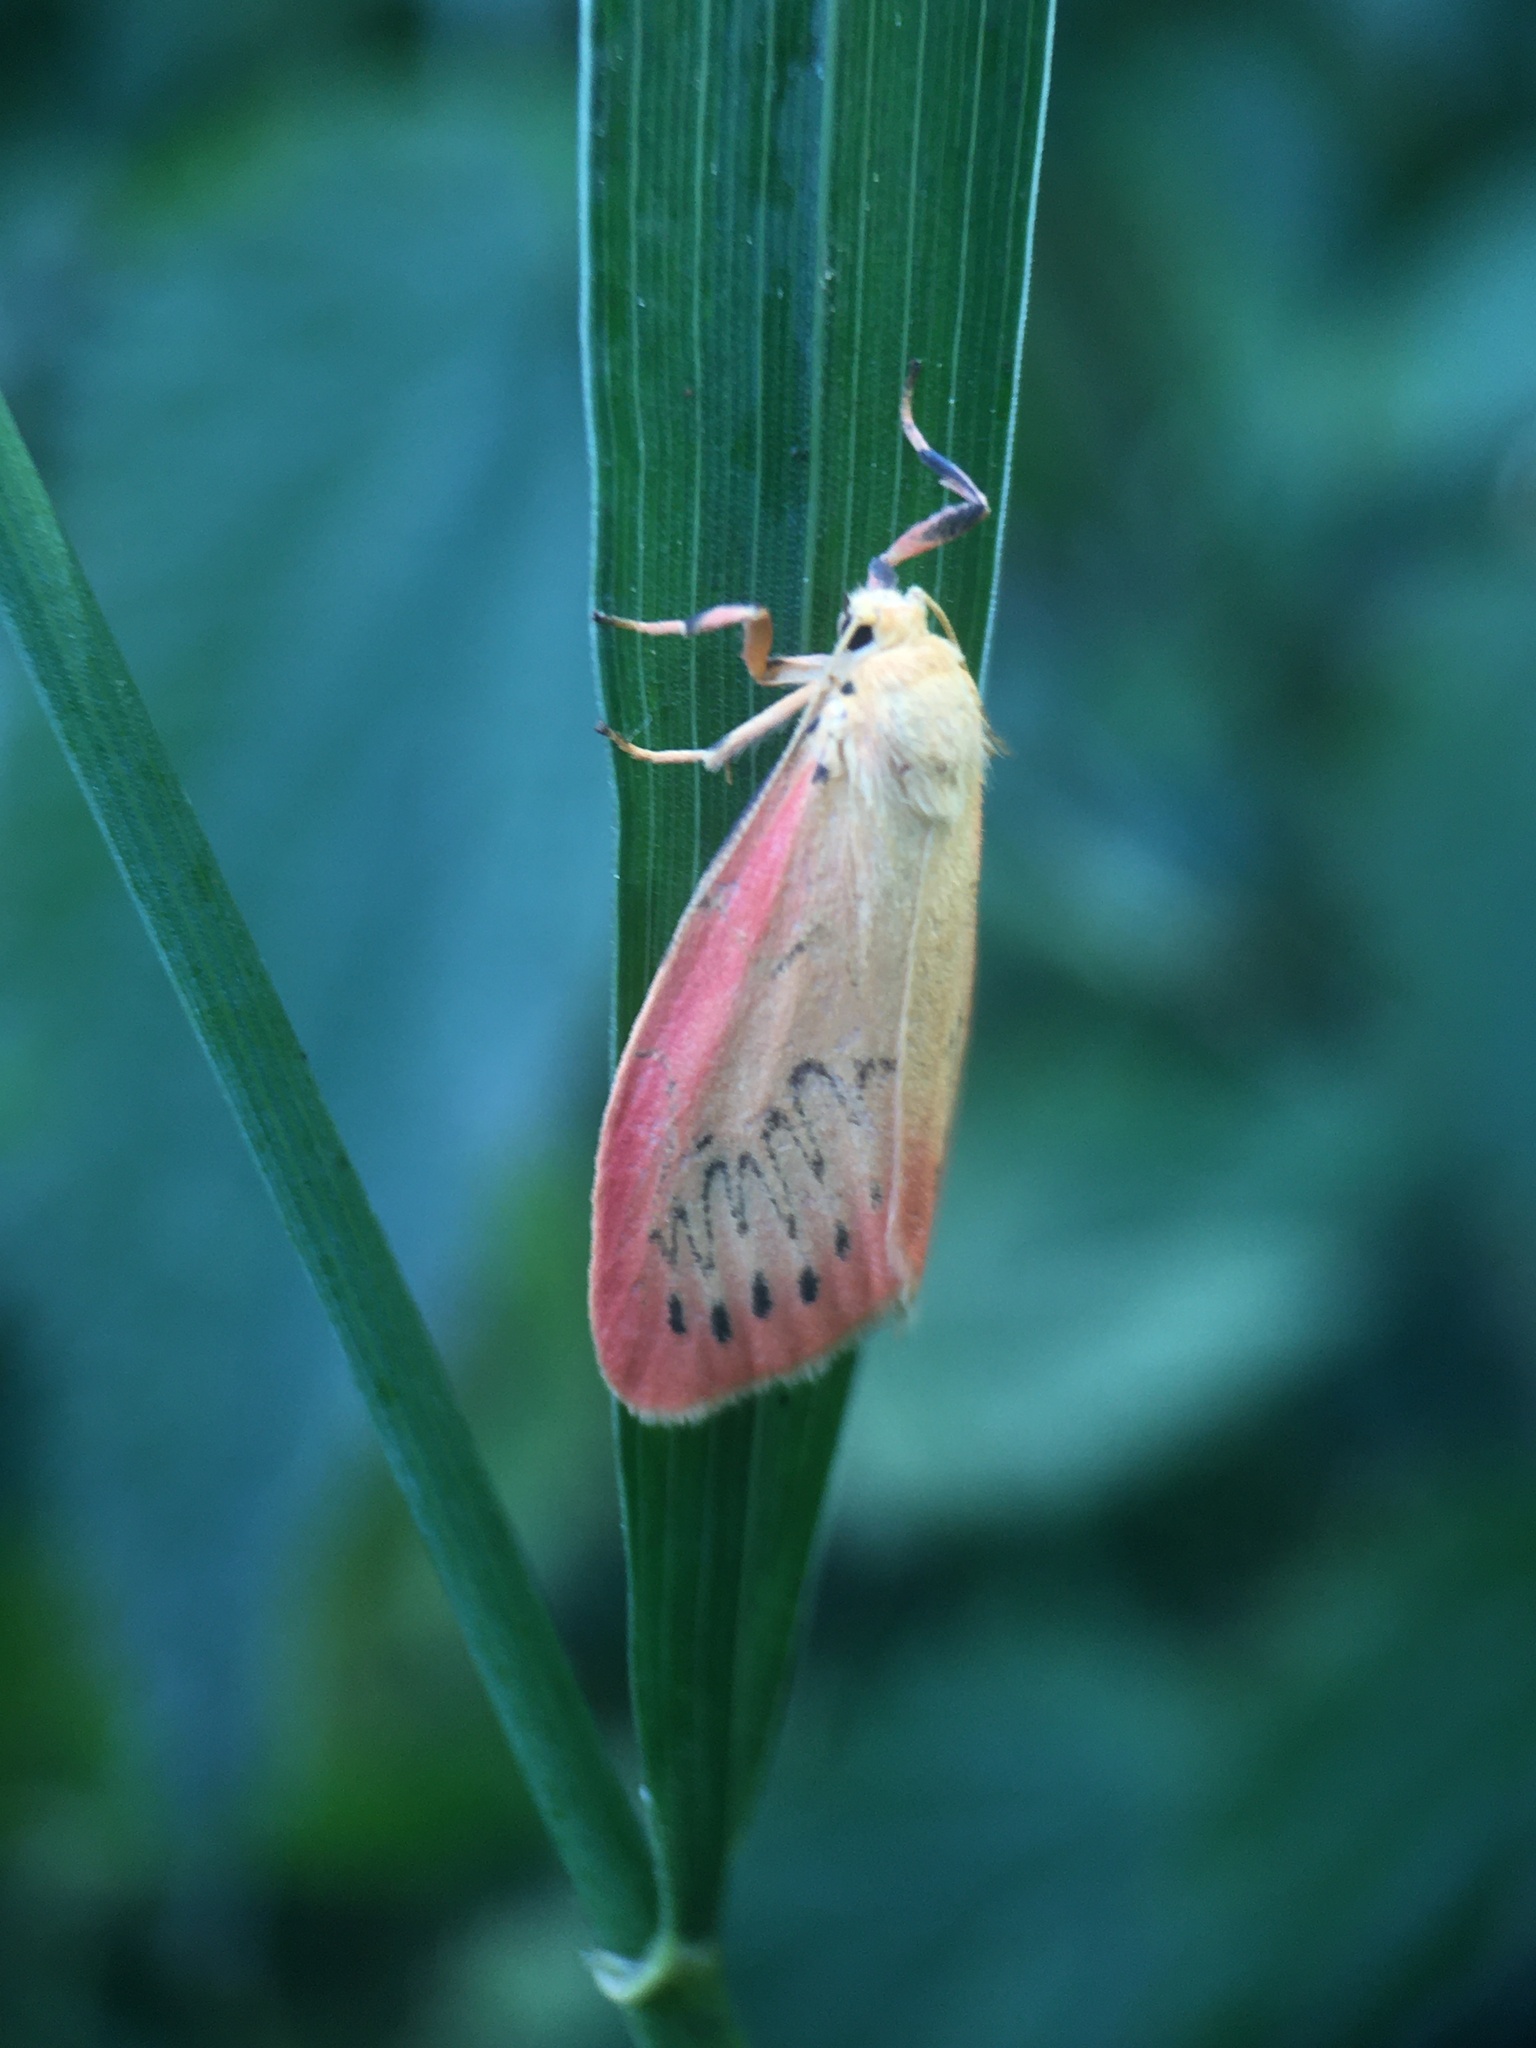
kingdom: Animalia
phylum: Arthropoda
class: Insecta
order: Lepidoptera
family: Erebidae
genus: Miltochrista
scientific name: Miltochrista miniata
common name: Rosy footman
